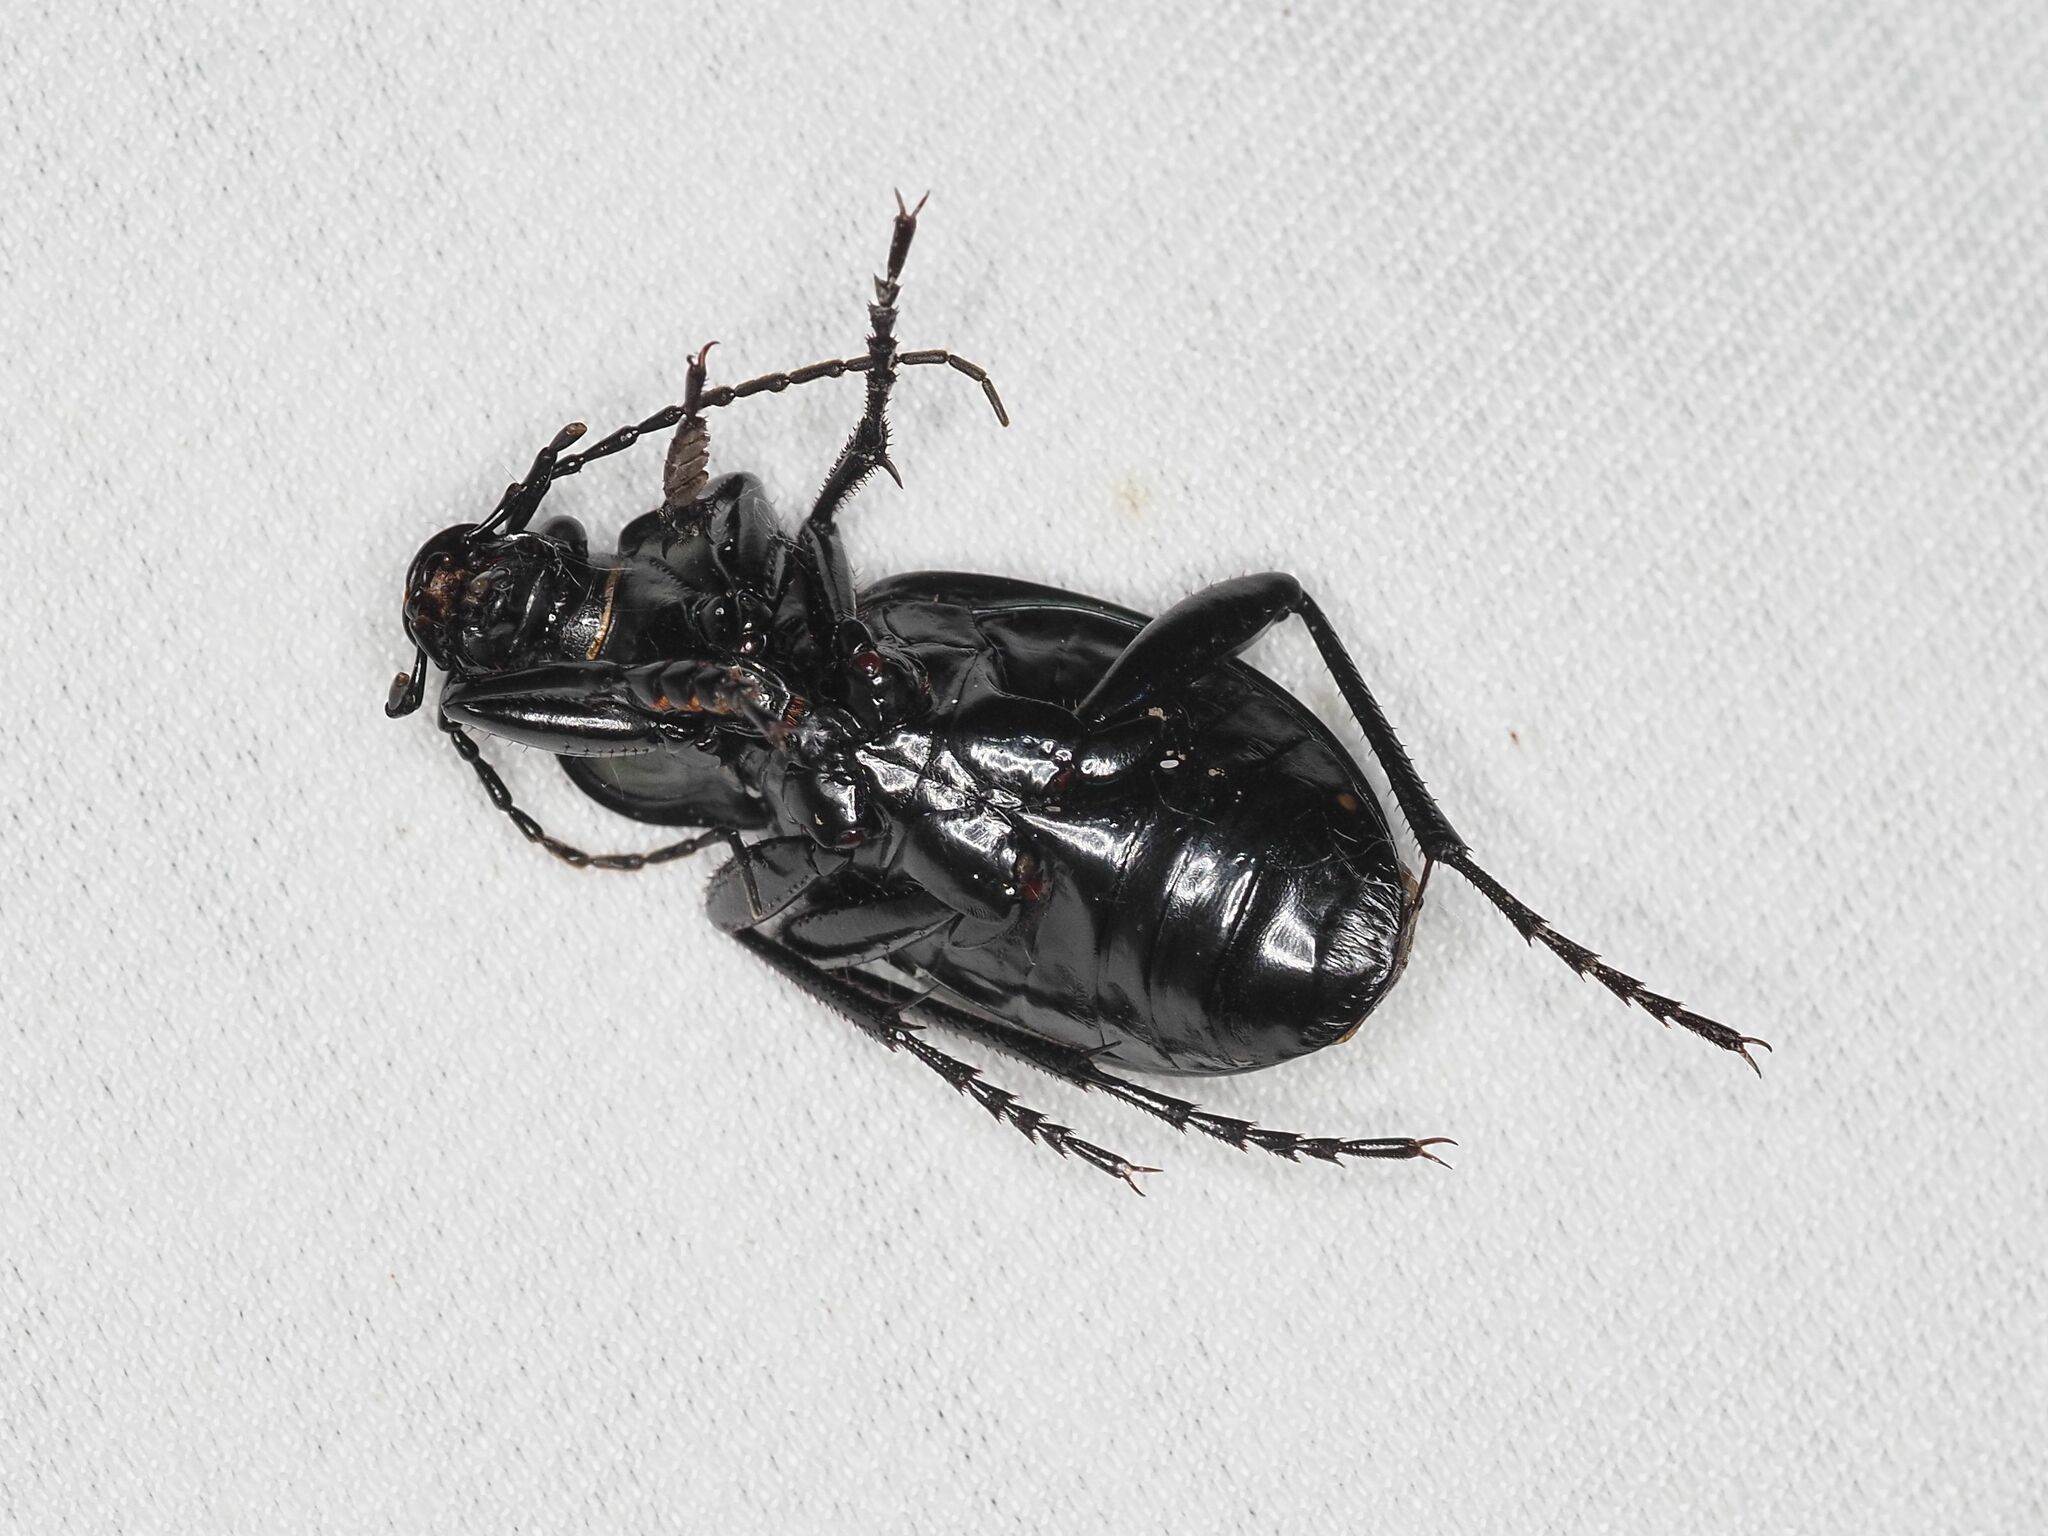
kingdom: Animalia
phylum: Arthropoda
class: Insecta
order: Coleoptera
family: Carabidae
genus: Carabus
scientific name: Carabus ulrichii
